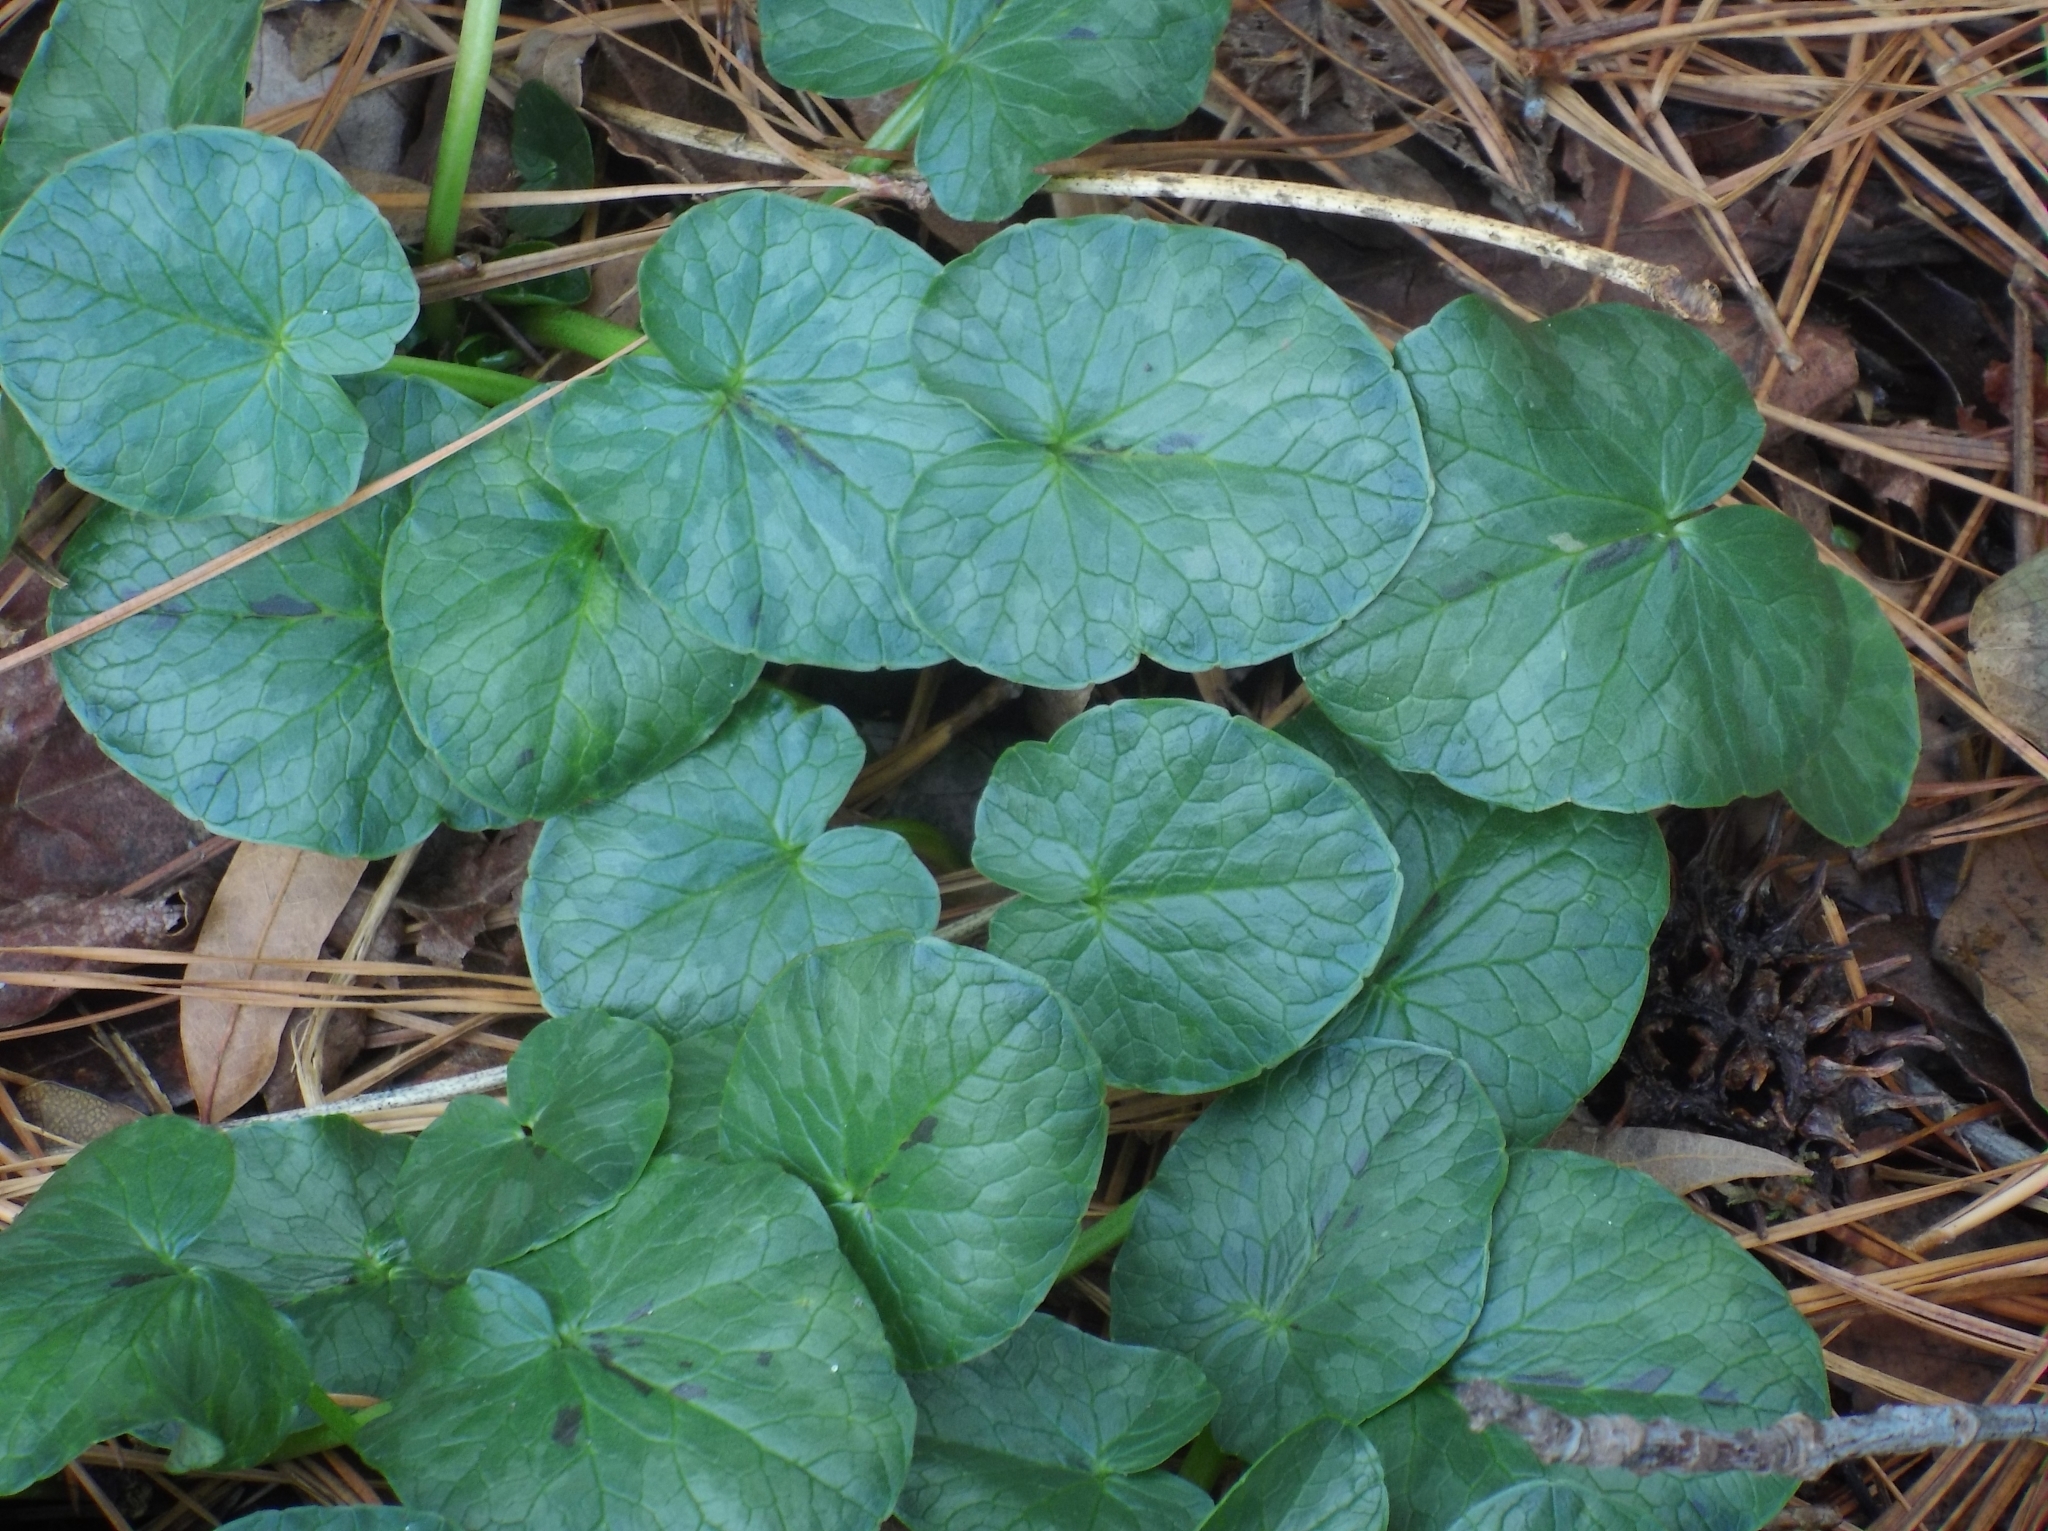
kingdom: Plantae
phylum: Tracheophyta
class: Magnoliopsida
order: Ranunculales
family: Ranunculaceae
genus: Ficaria
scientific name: Ficaria verna
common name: Lesser celandine
